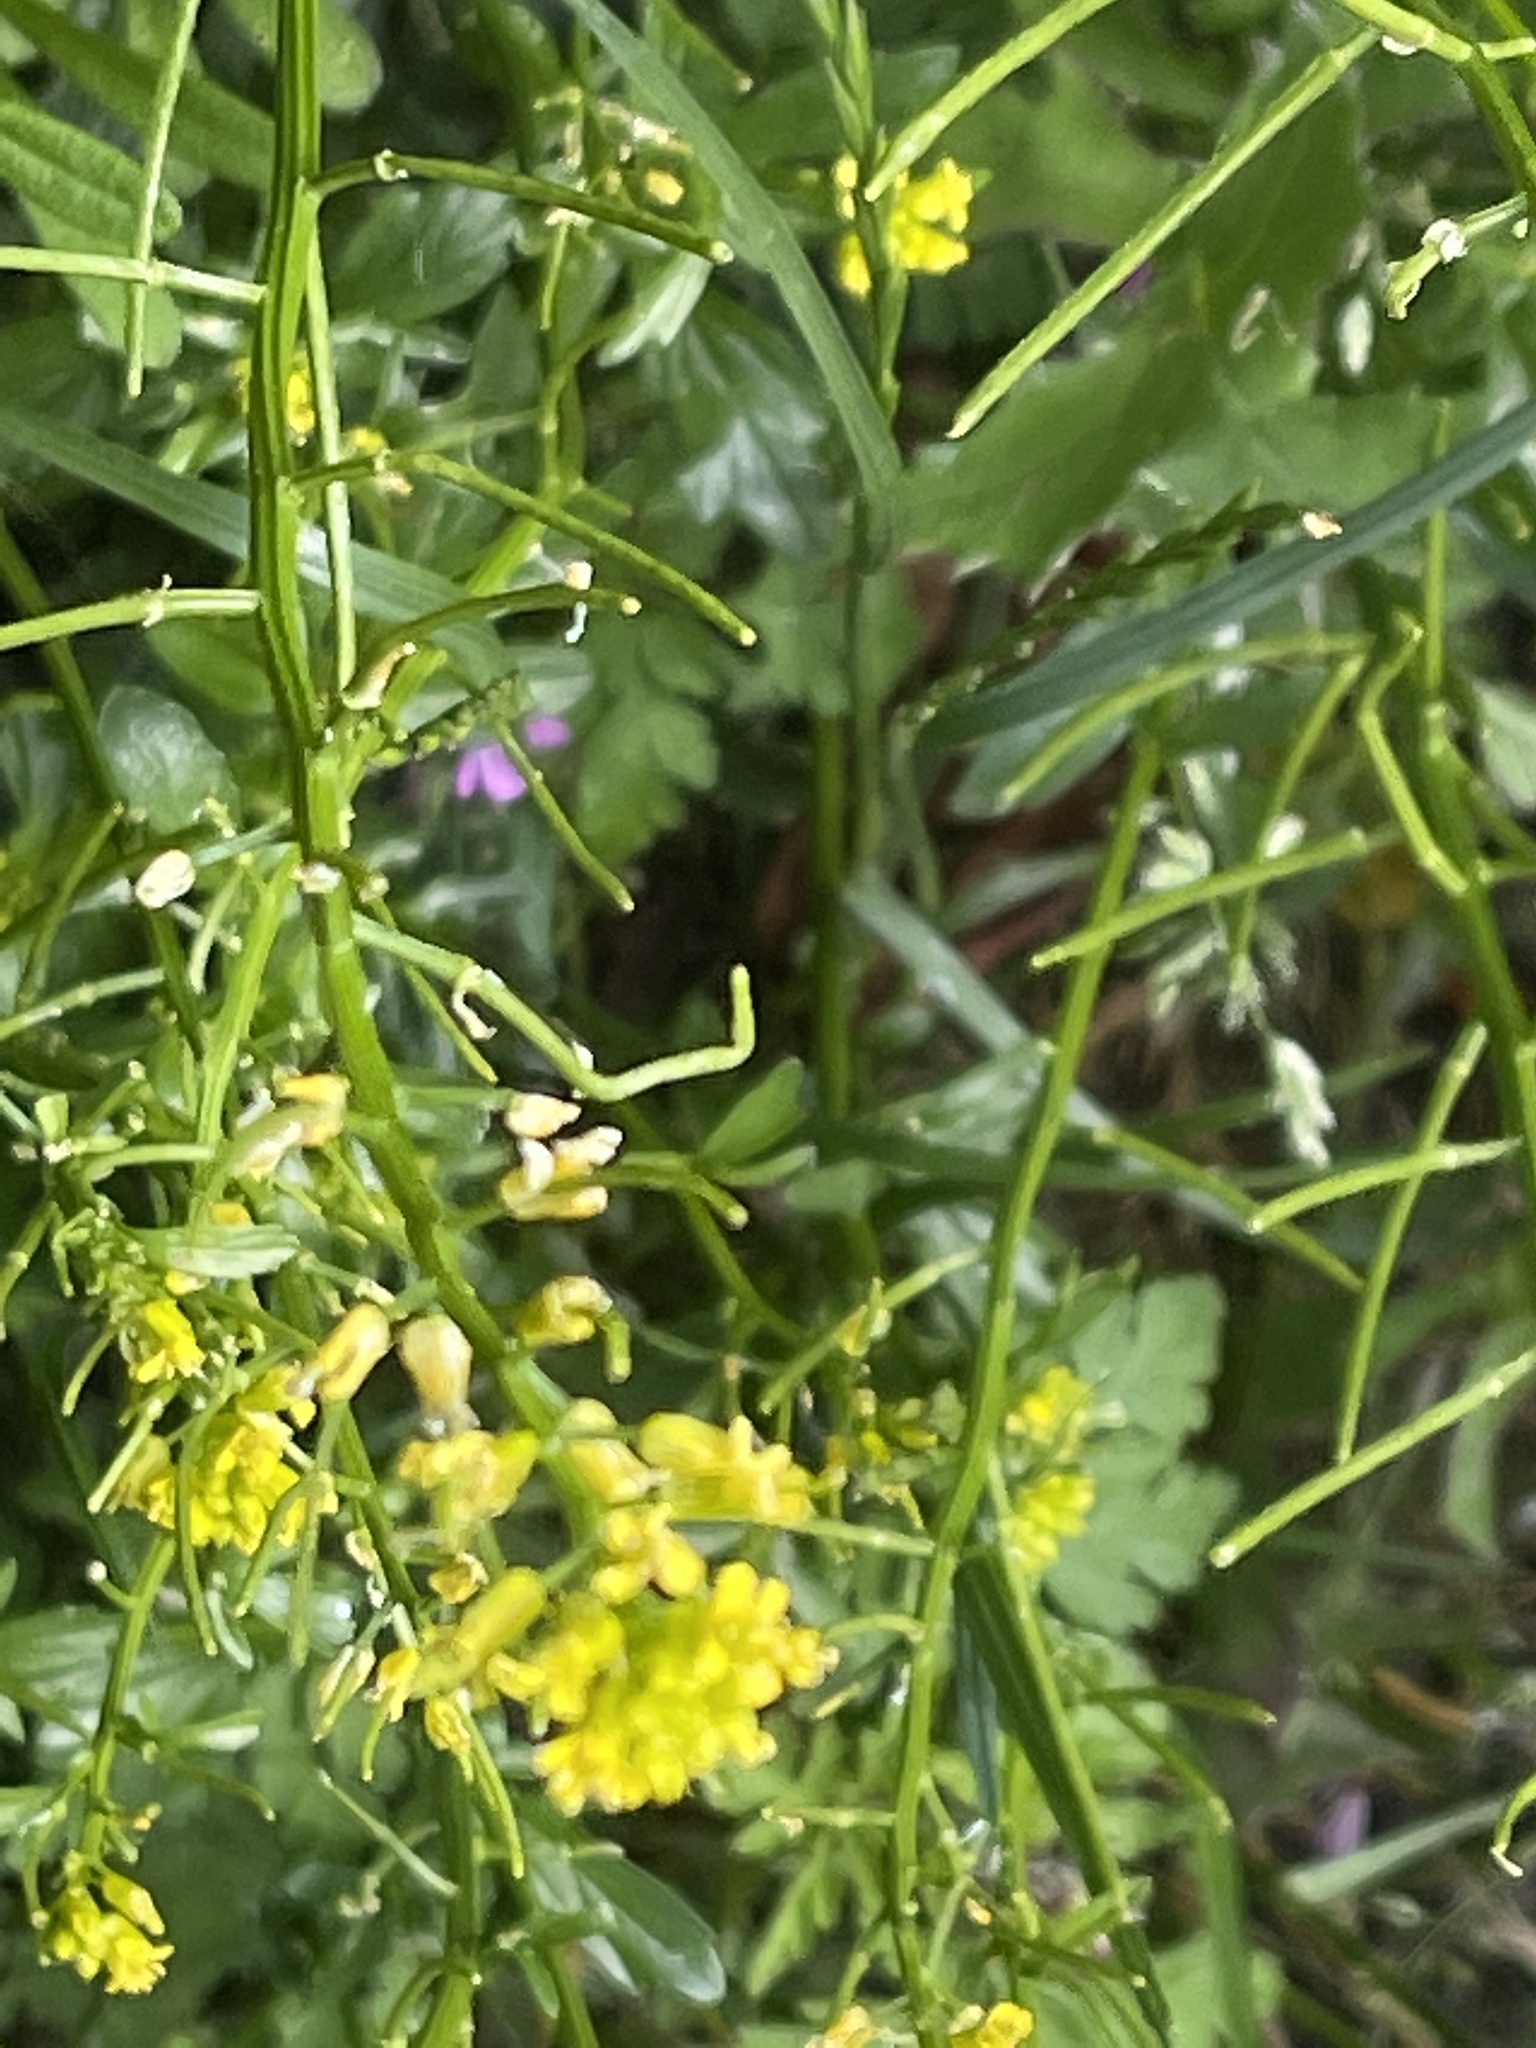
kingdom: Plantae
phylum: Tracheophyta
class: Magnoliopsida
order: Brassicales
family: Brassicaceae
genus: Barbarea
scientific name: Barbarea vulgaris
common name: Cressy-greens
